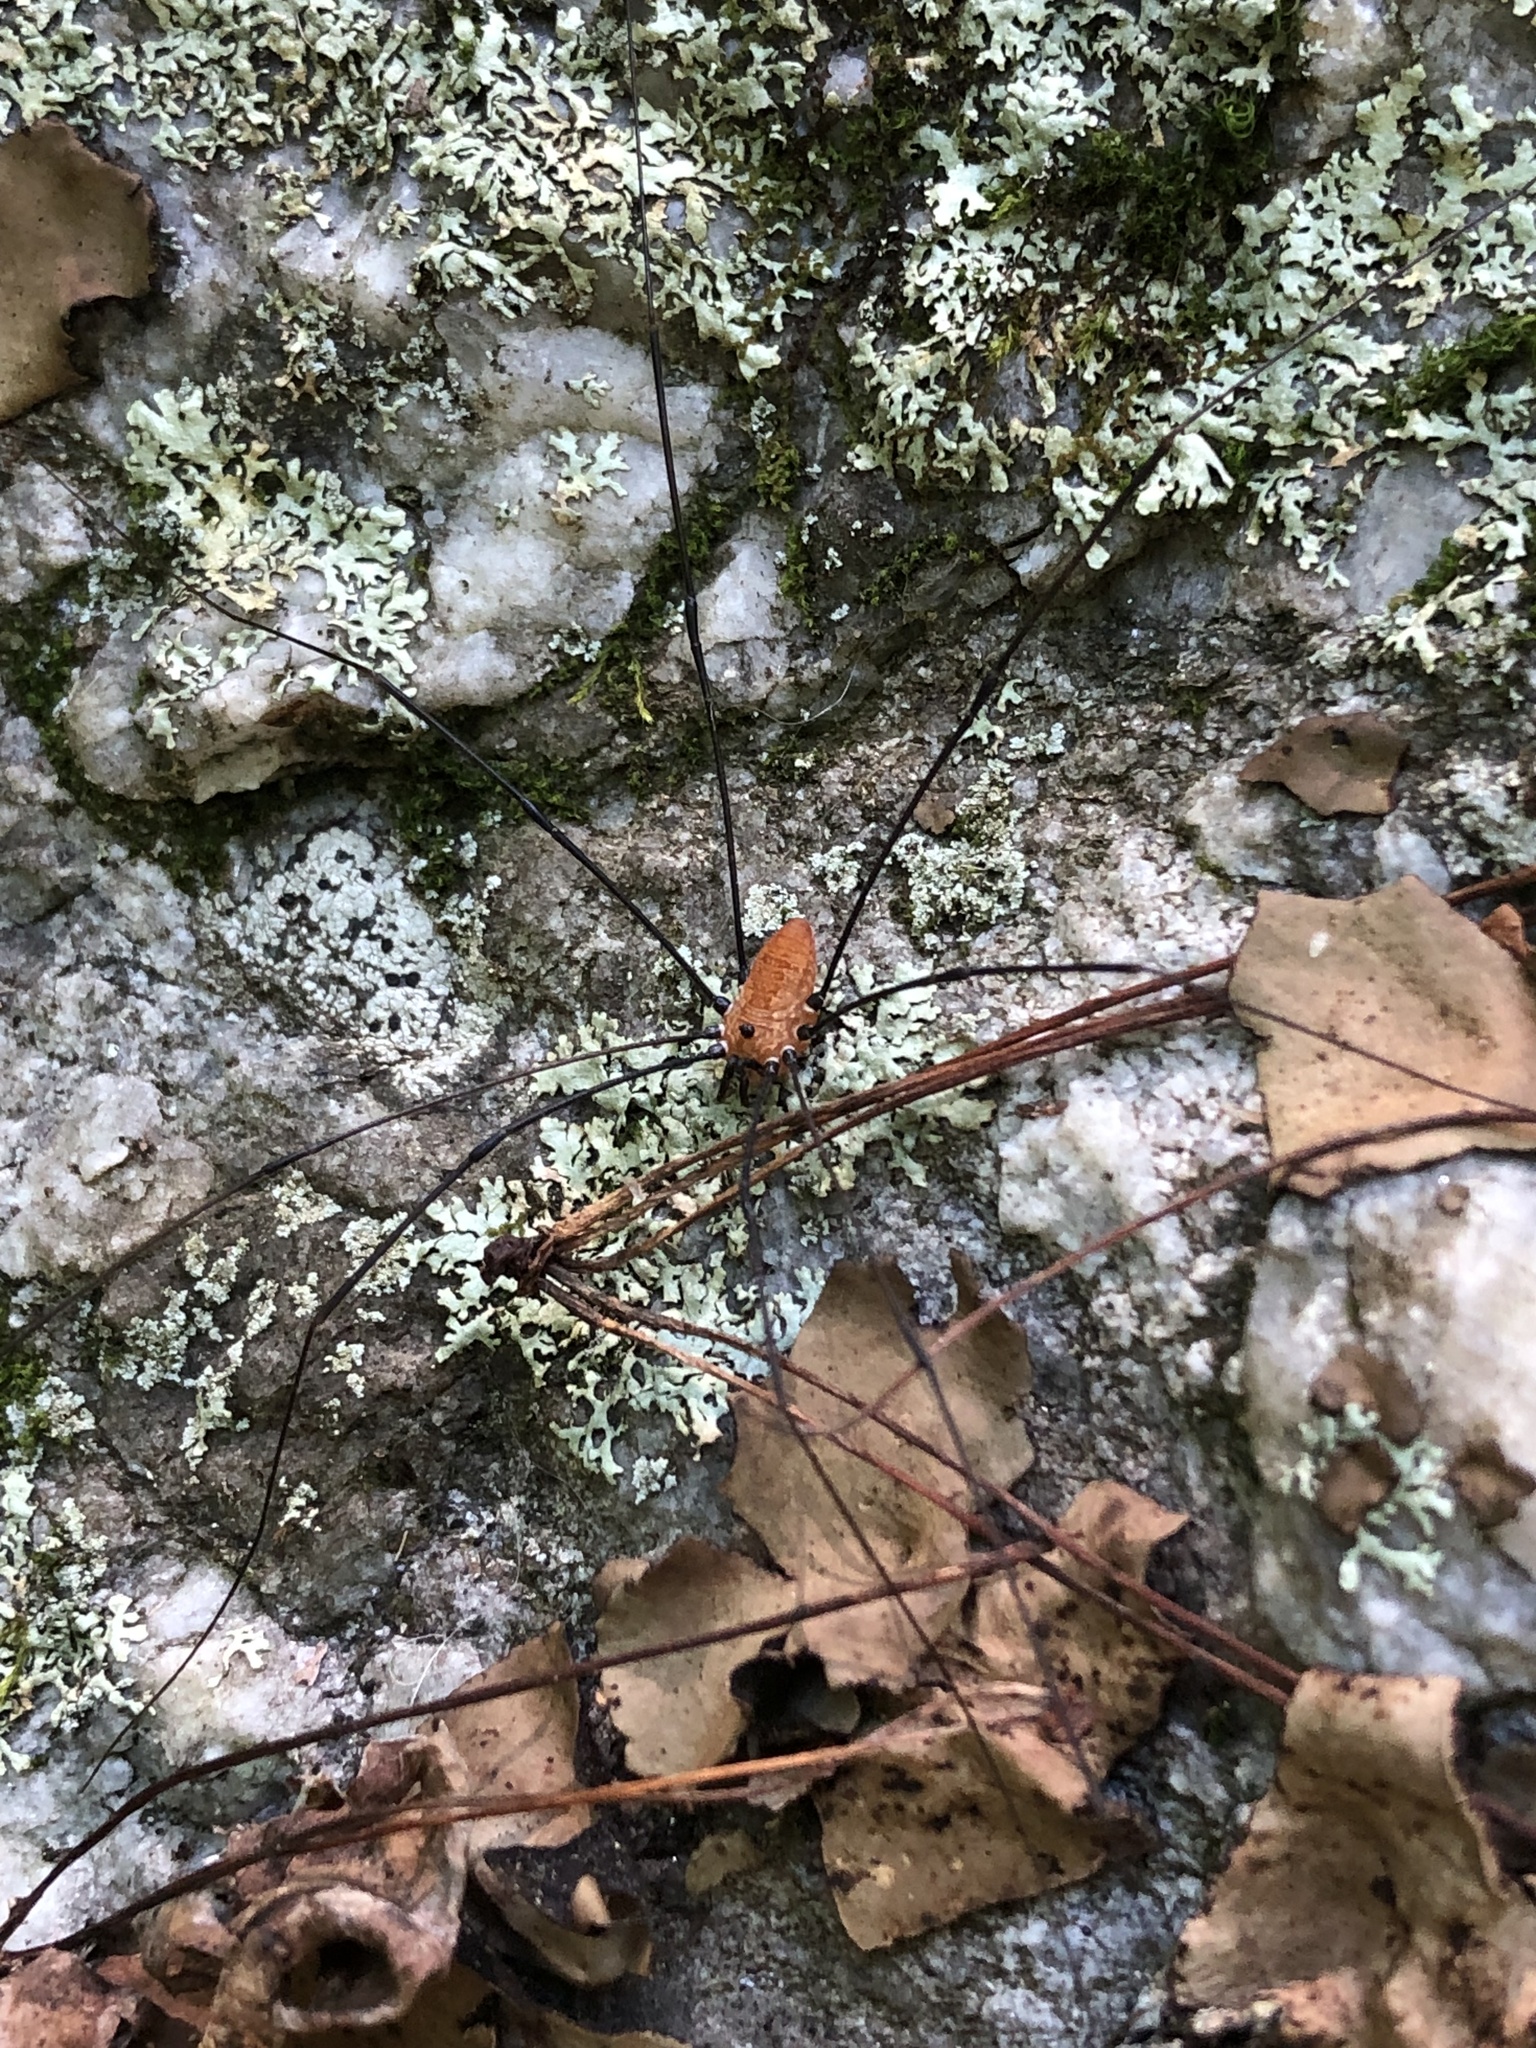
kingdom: Animalia
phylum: Arthropoda
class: Arachnida
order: Opiliones
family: Sclerosomatidae
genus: Leiobunum
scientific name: Leiobunum nigropalpi
